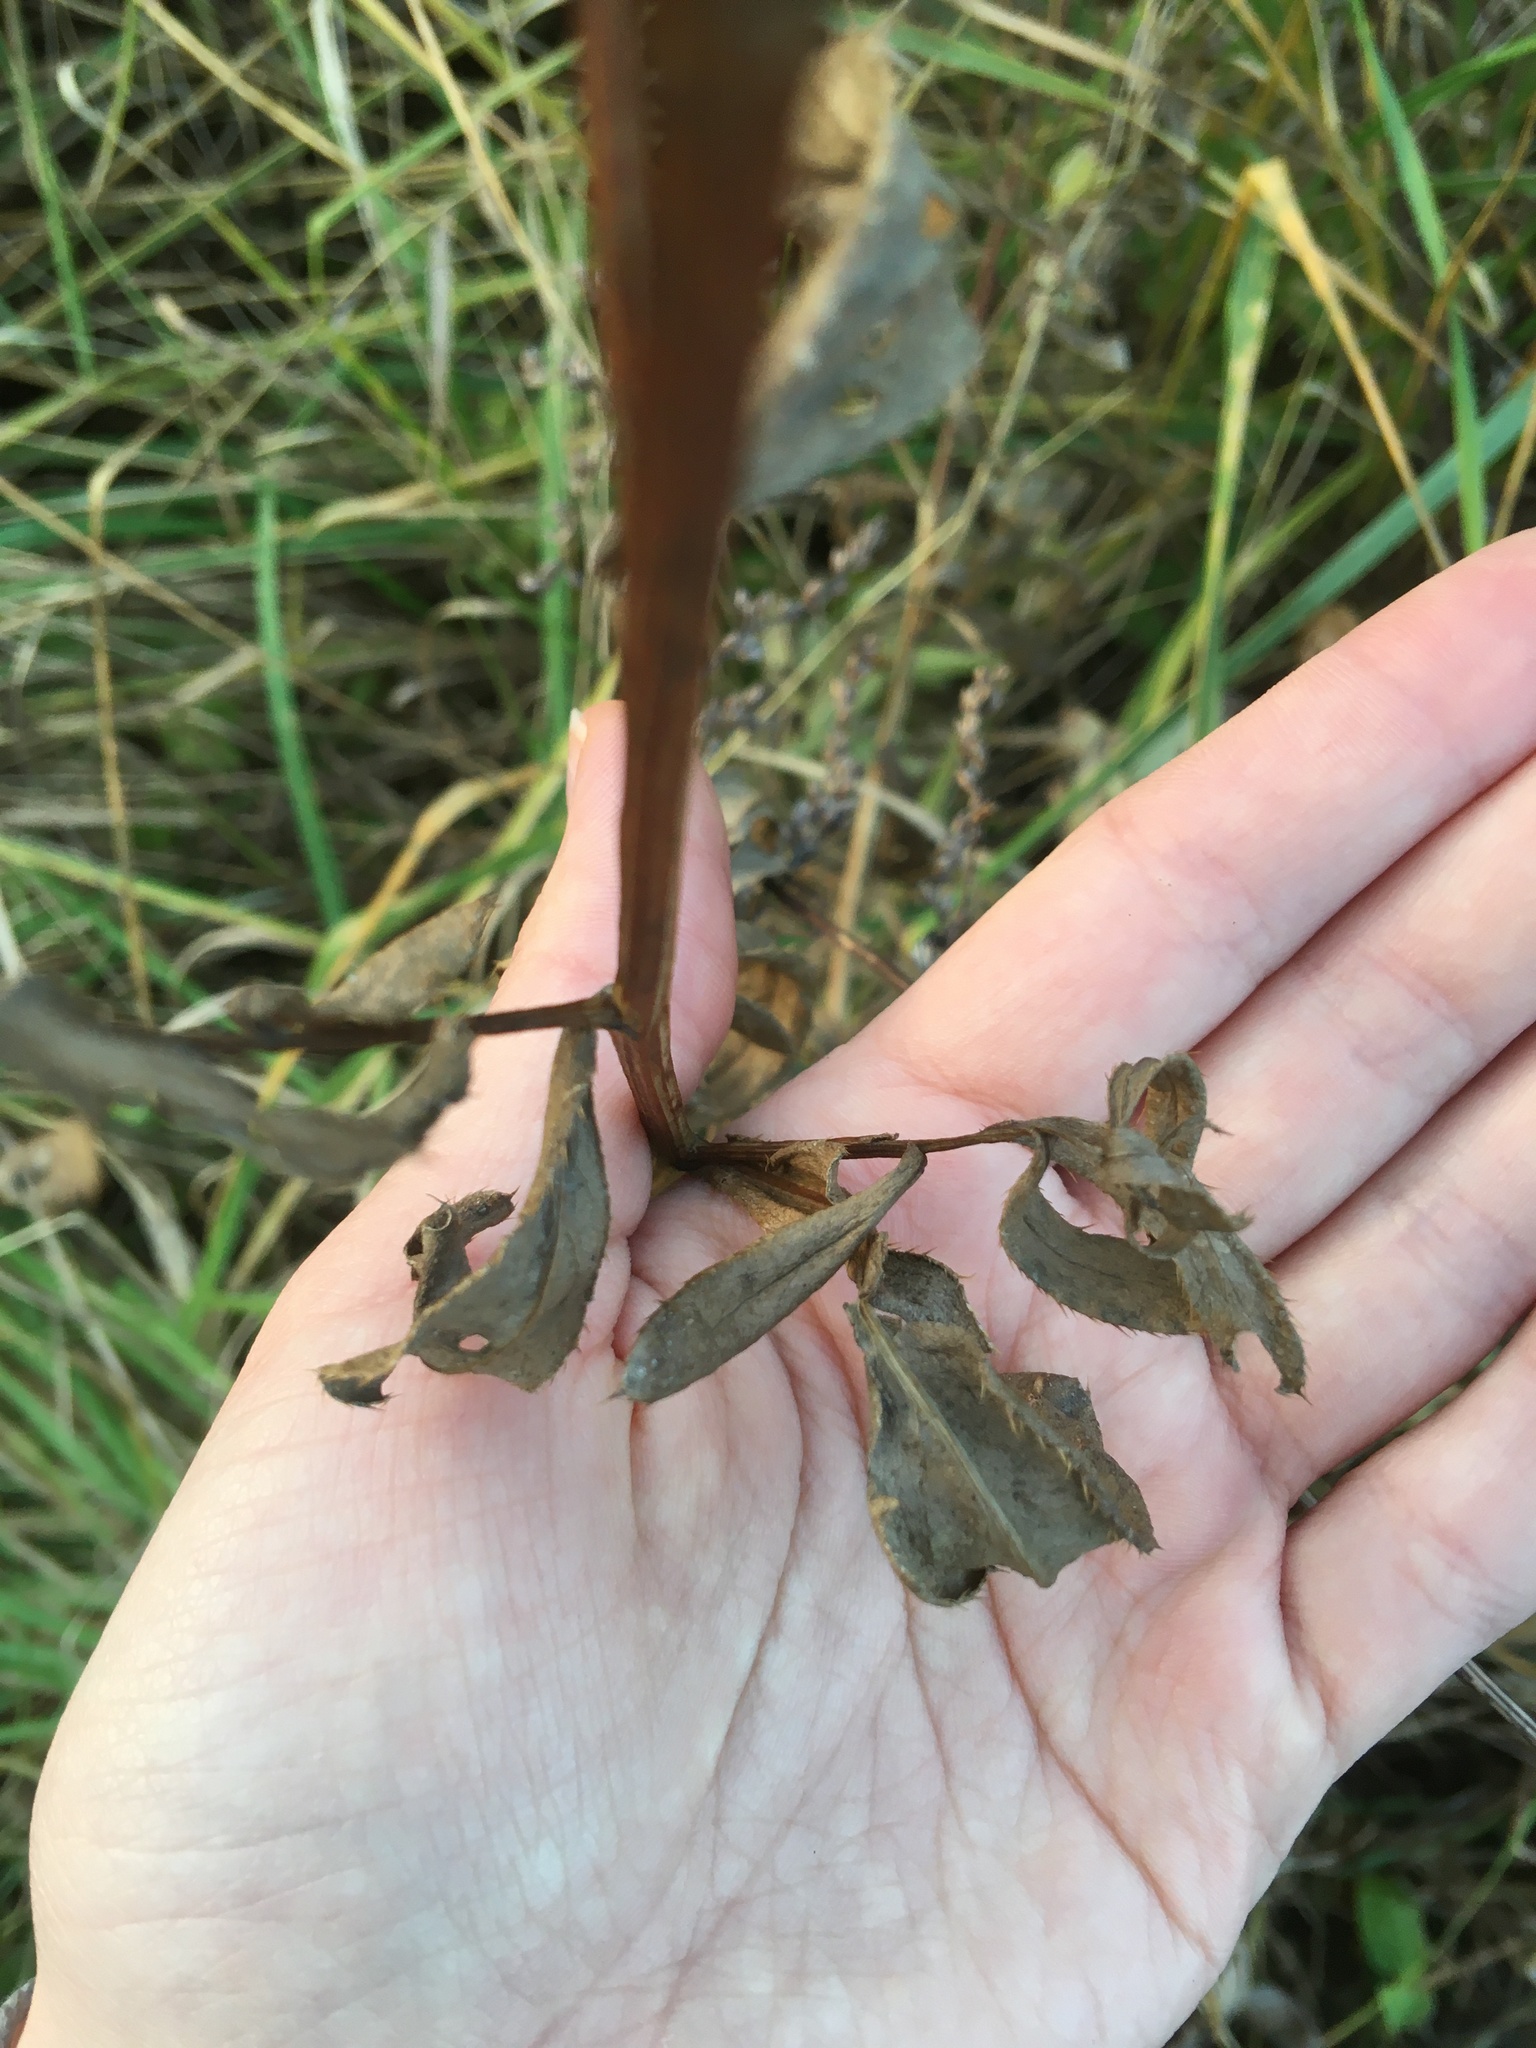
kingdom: Plantae
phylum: Tracheophyta
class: Magnoliopsida
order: Asterales
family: Asteraceae
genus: Cirsium
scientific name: Cirsium arvense
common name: Creeping thistle
